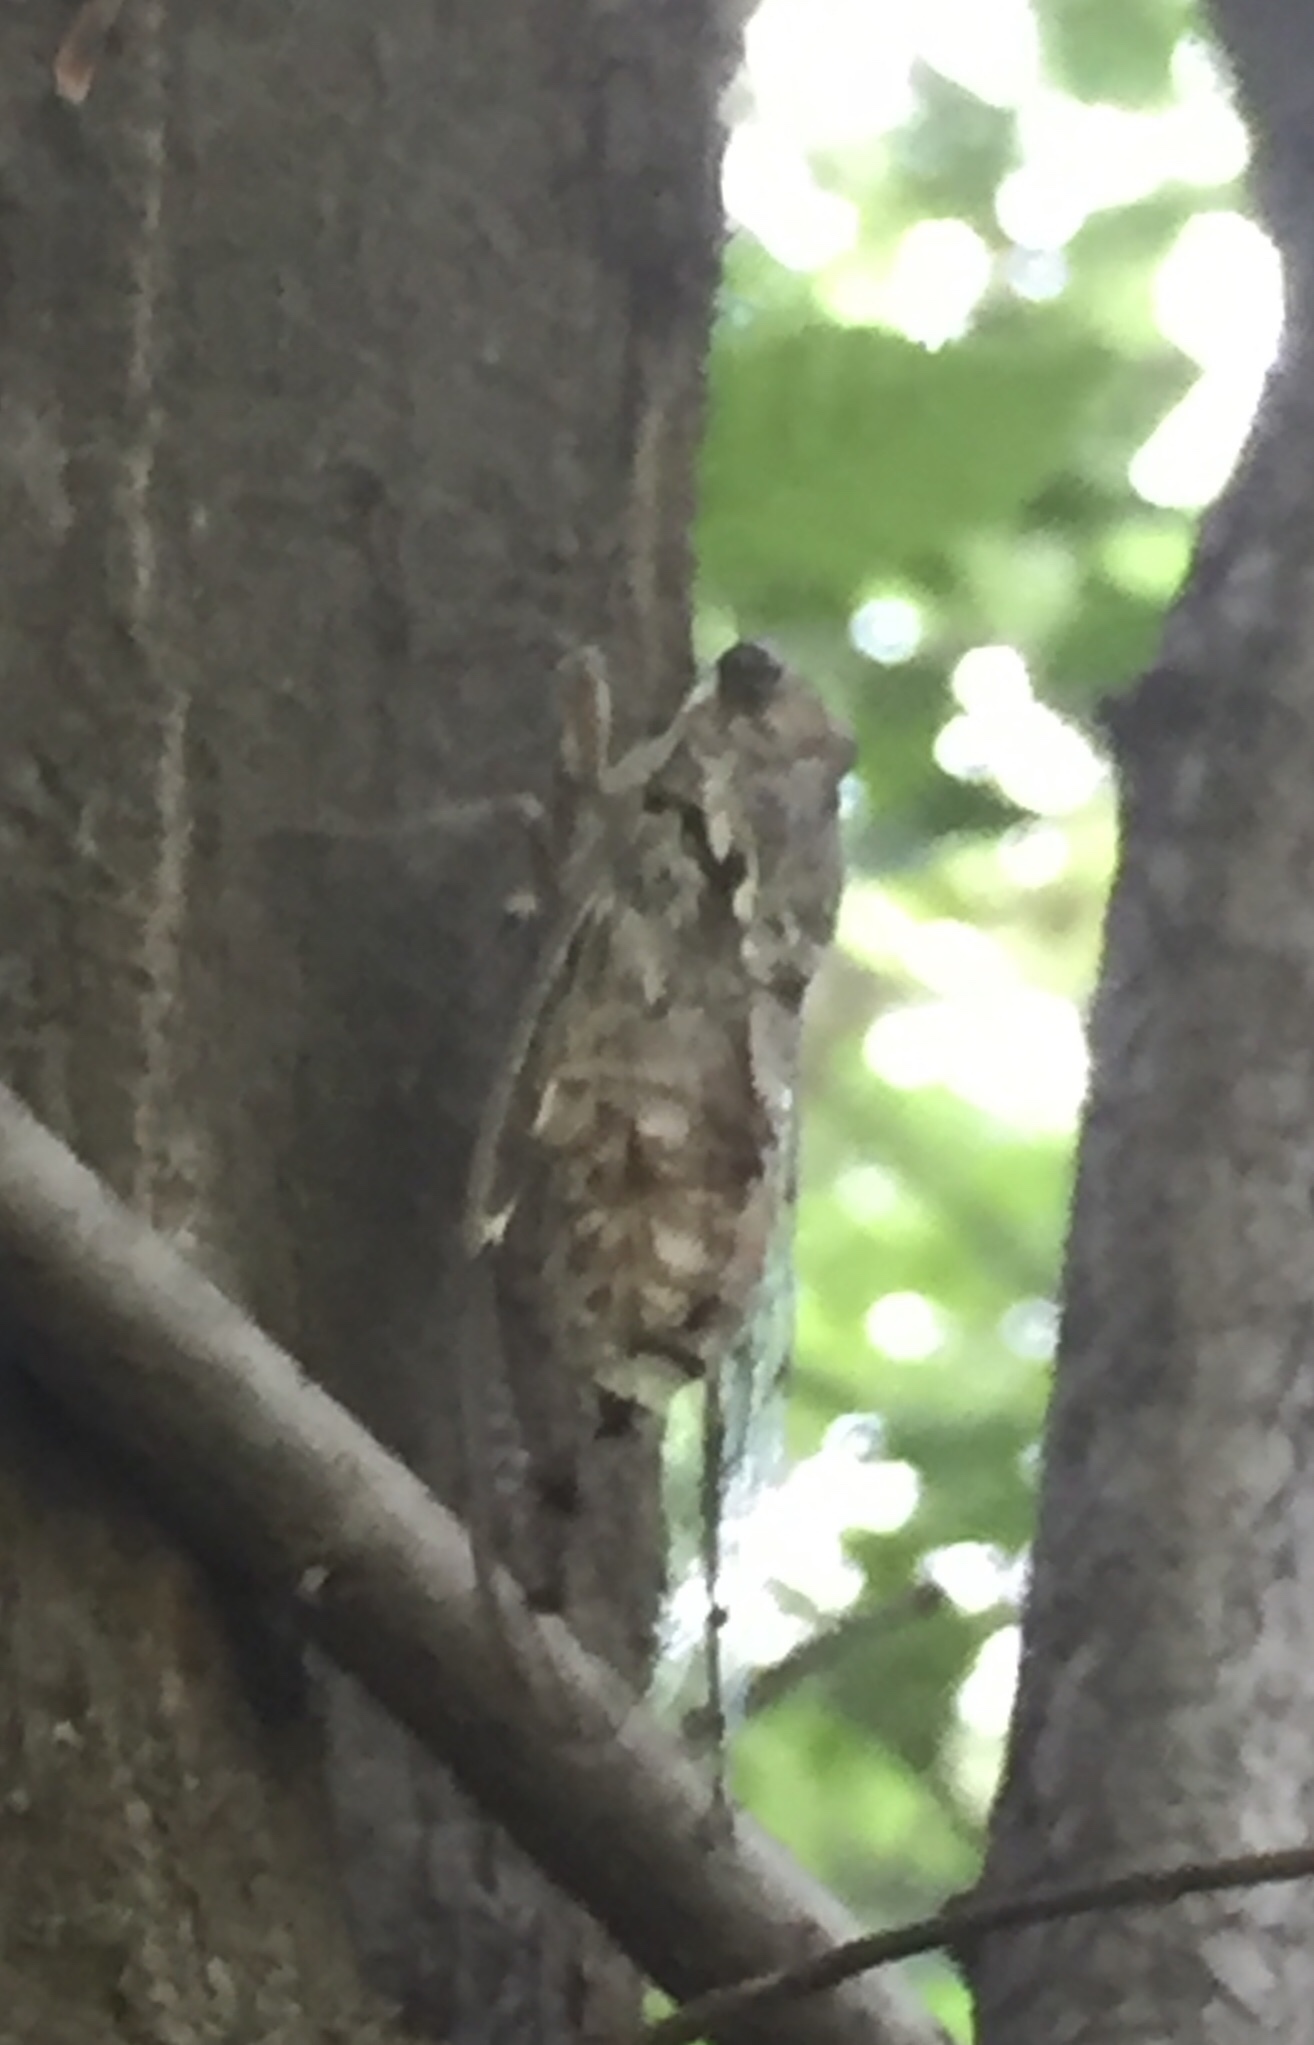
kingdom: Animalia
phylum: Arthropoda
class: Insecta
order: Hemiptera
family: Cicadidae
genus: Cicada
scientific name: Cicada orni
